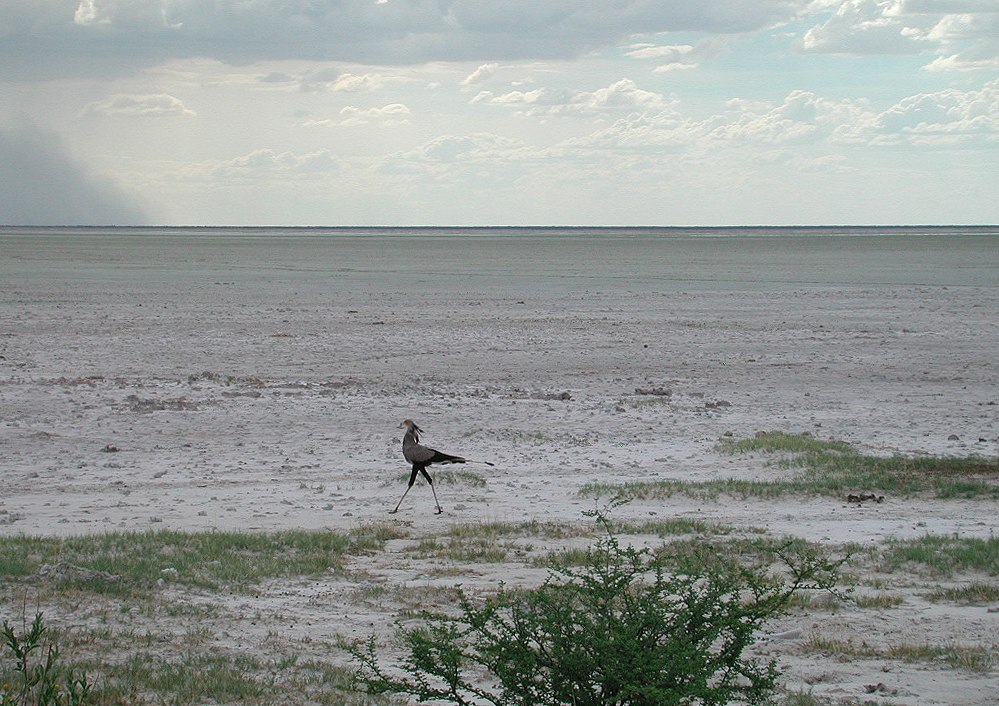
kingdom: Animalia
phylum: Chordata
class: Aves
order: Accipitriformes
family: Sagittariidae
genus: Sagittarius
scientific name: Sagittarius serpentarius
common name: Secretarybird
